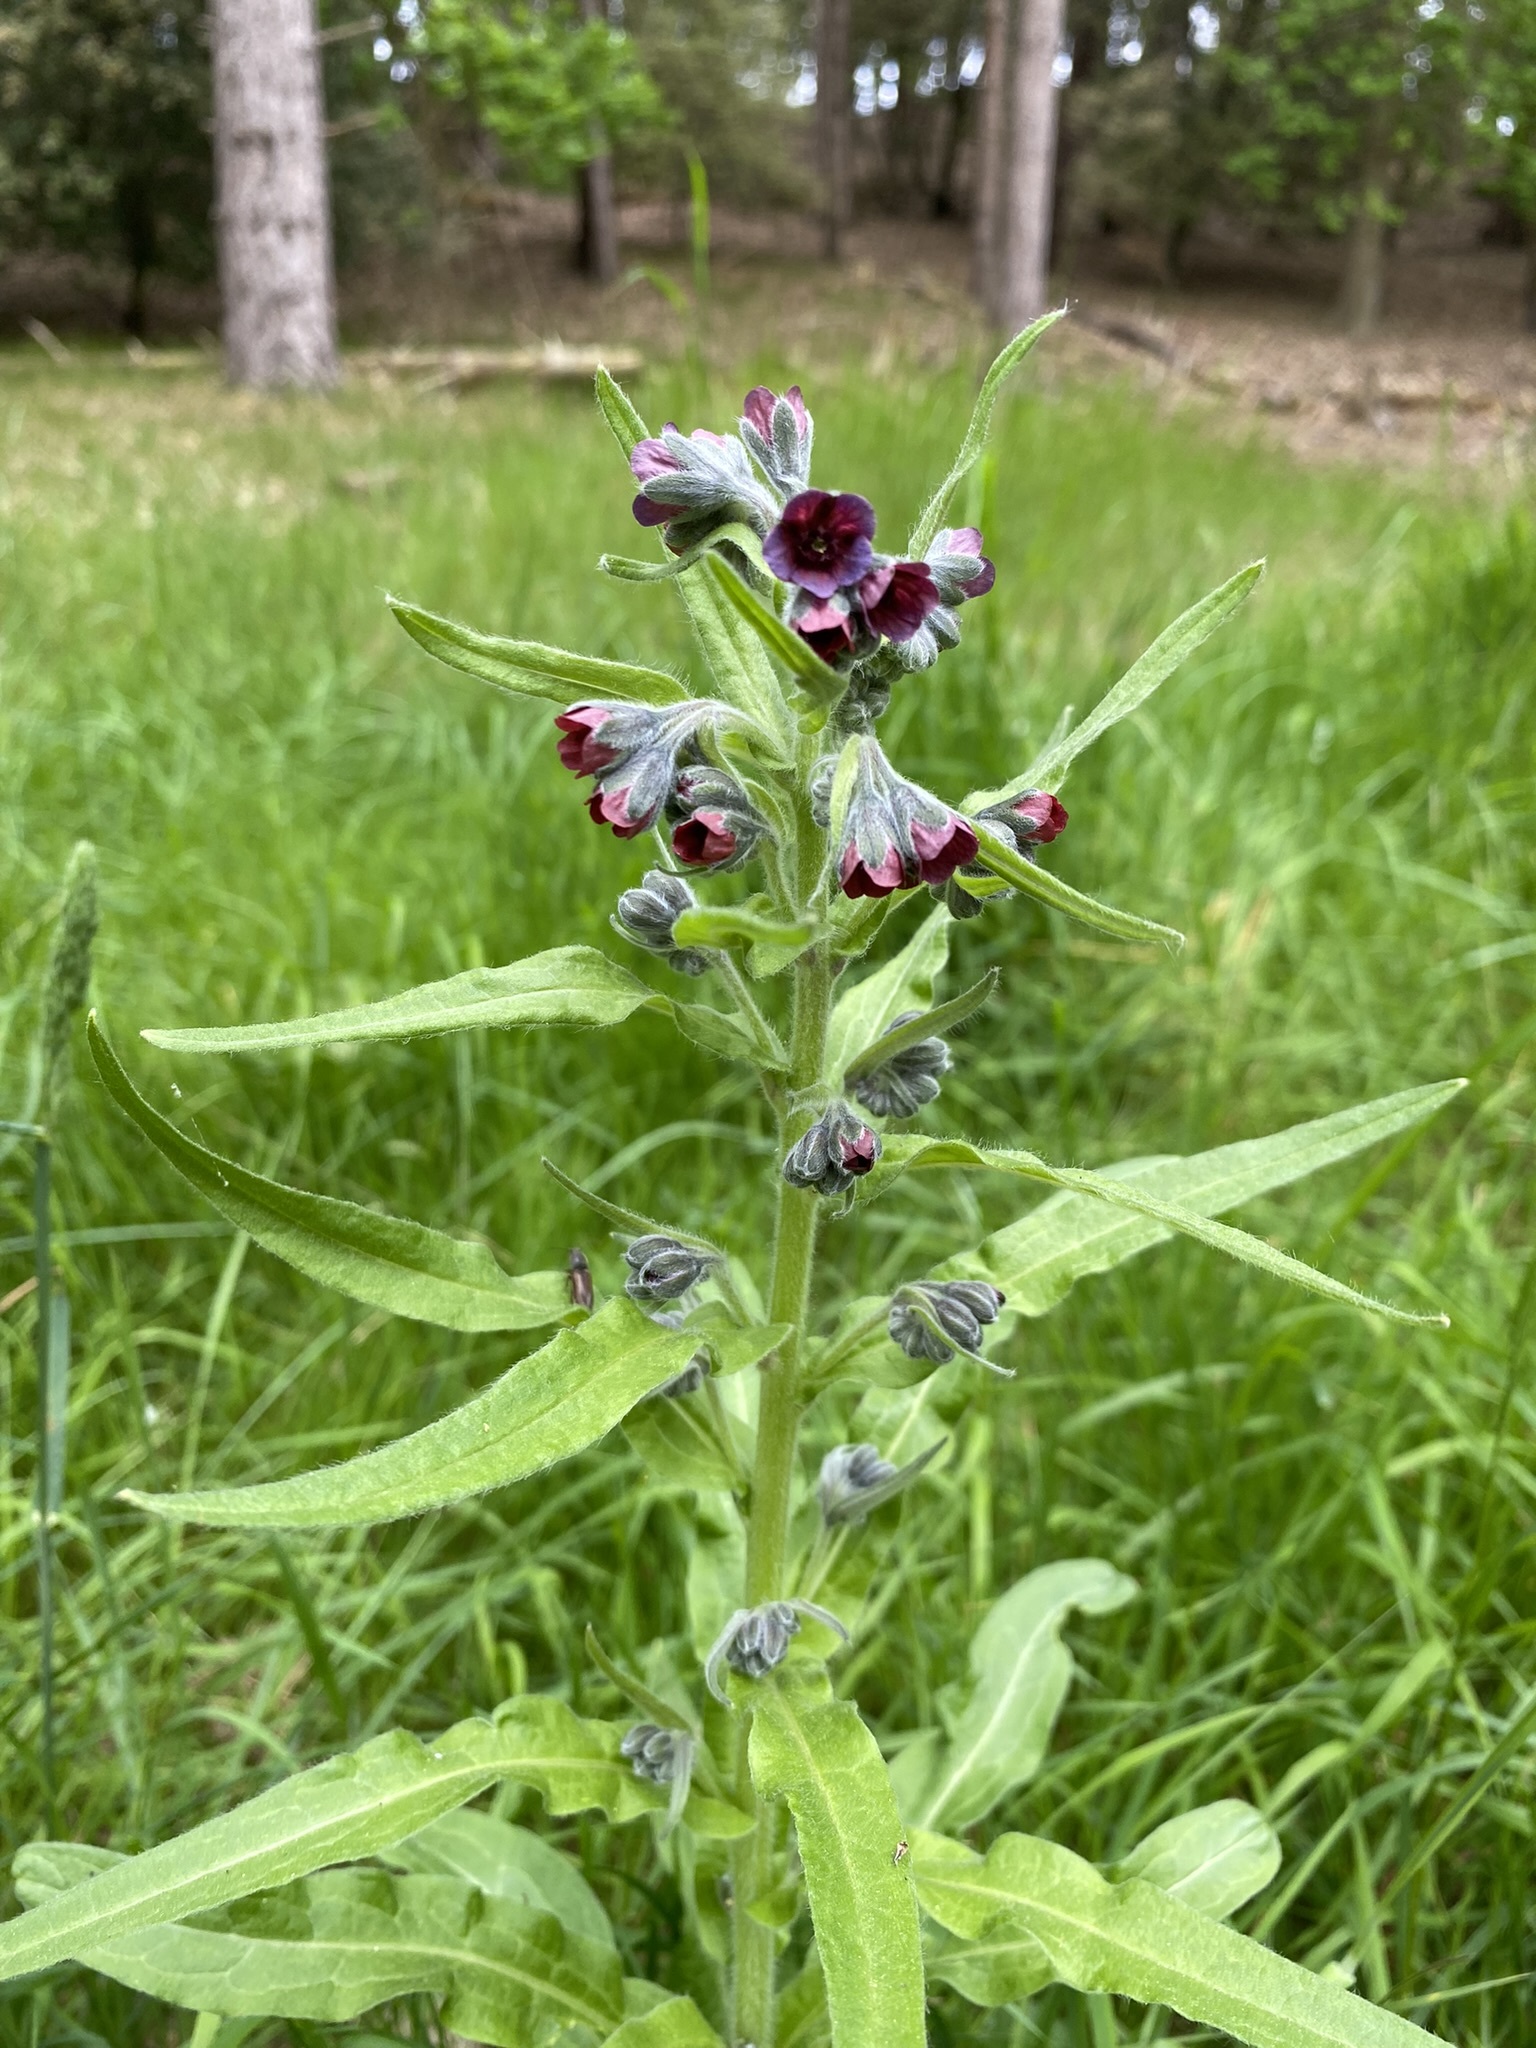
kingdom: Plantae
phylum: Tracheophyta
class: Magnoliopsida
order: Boraginales
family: Boraginaceae
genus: Cynoglossum
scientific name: Cynoglossum officinale
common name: Hound's-tongue
